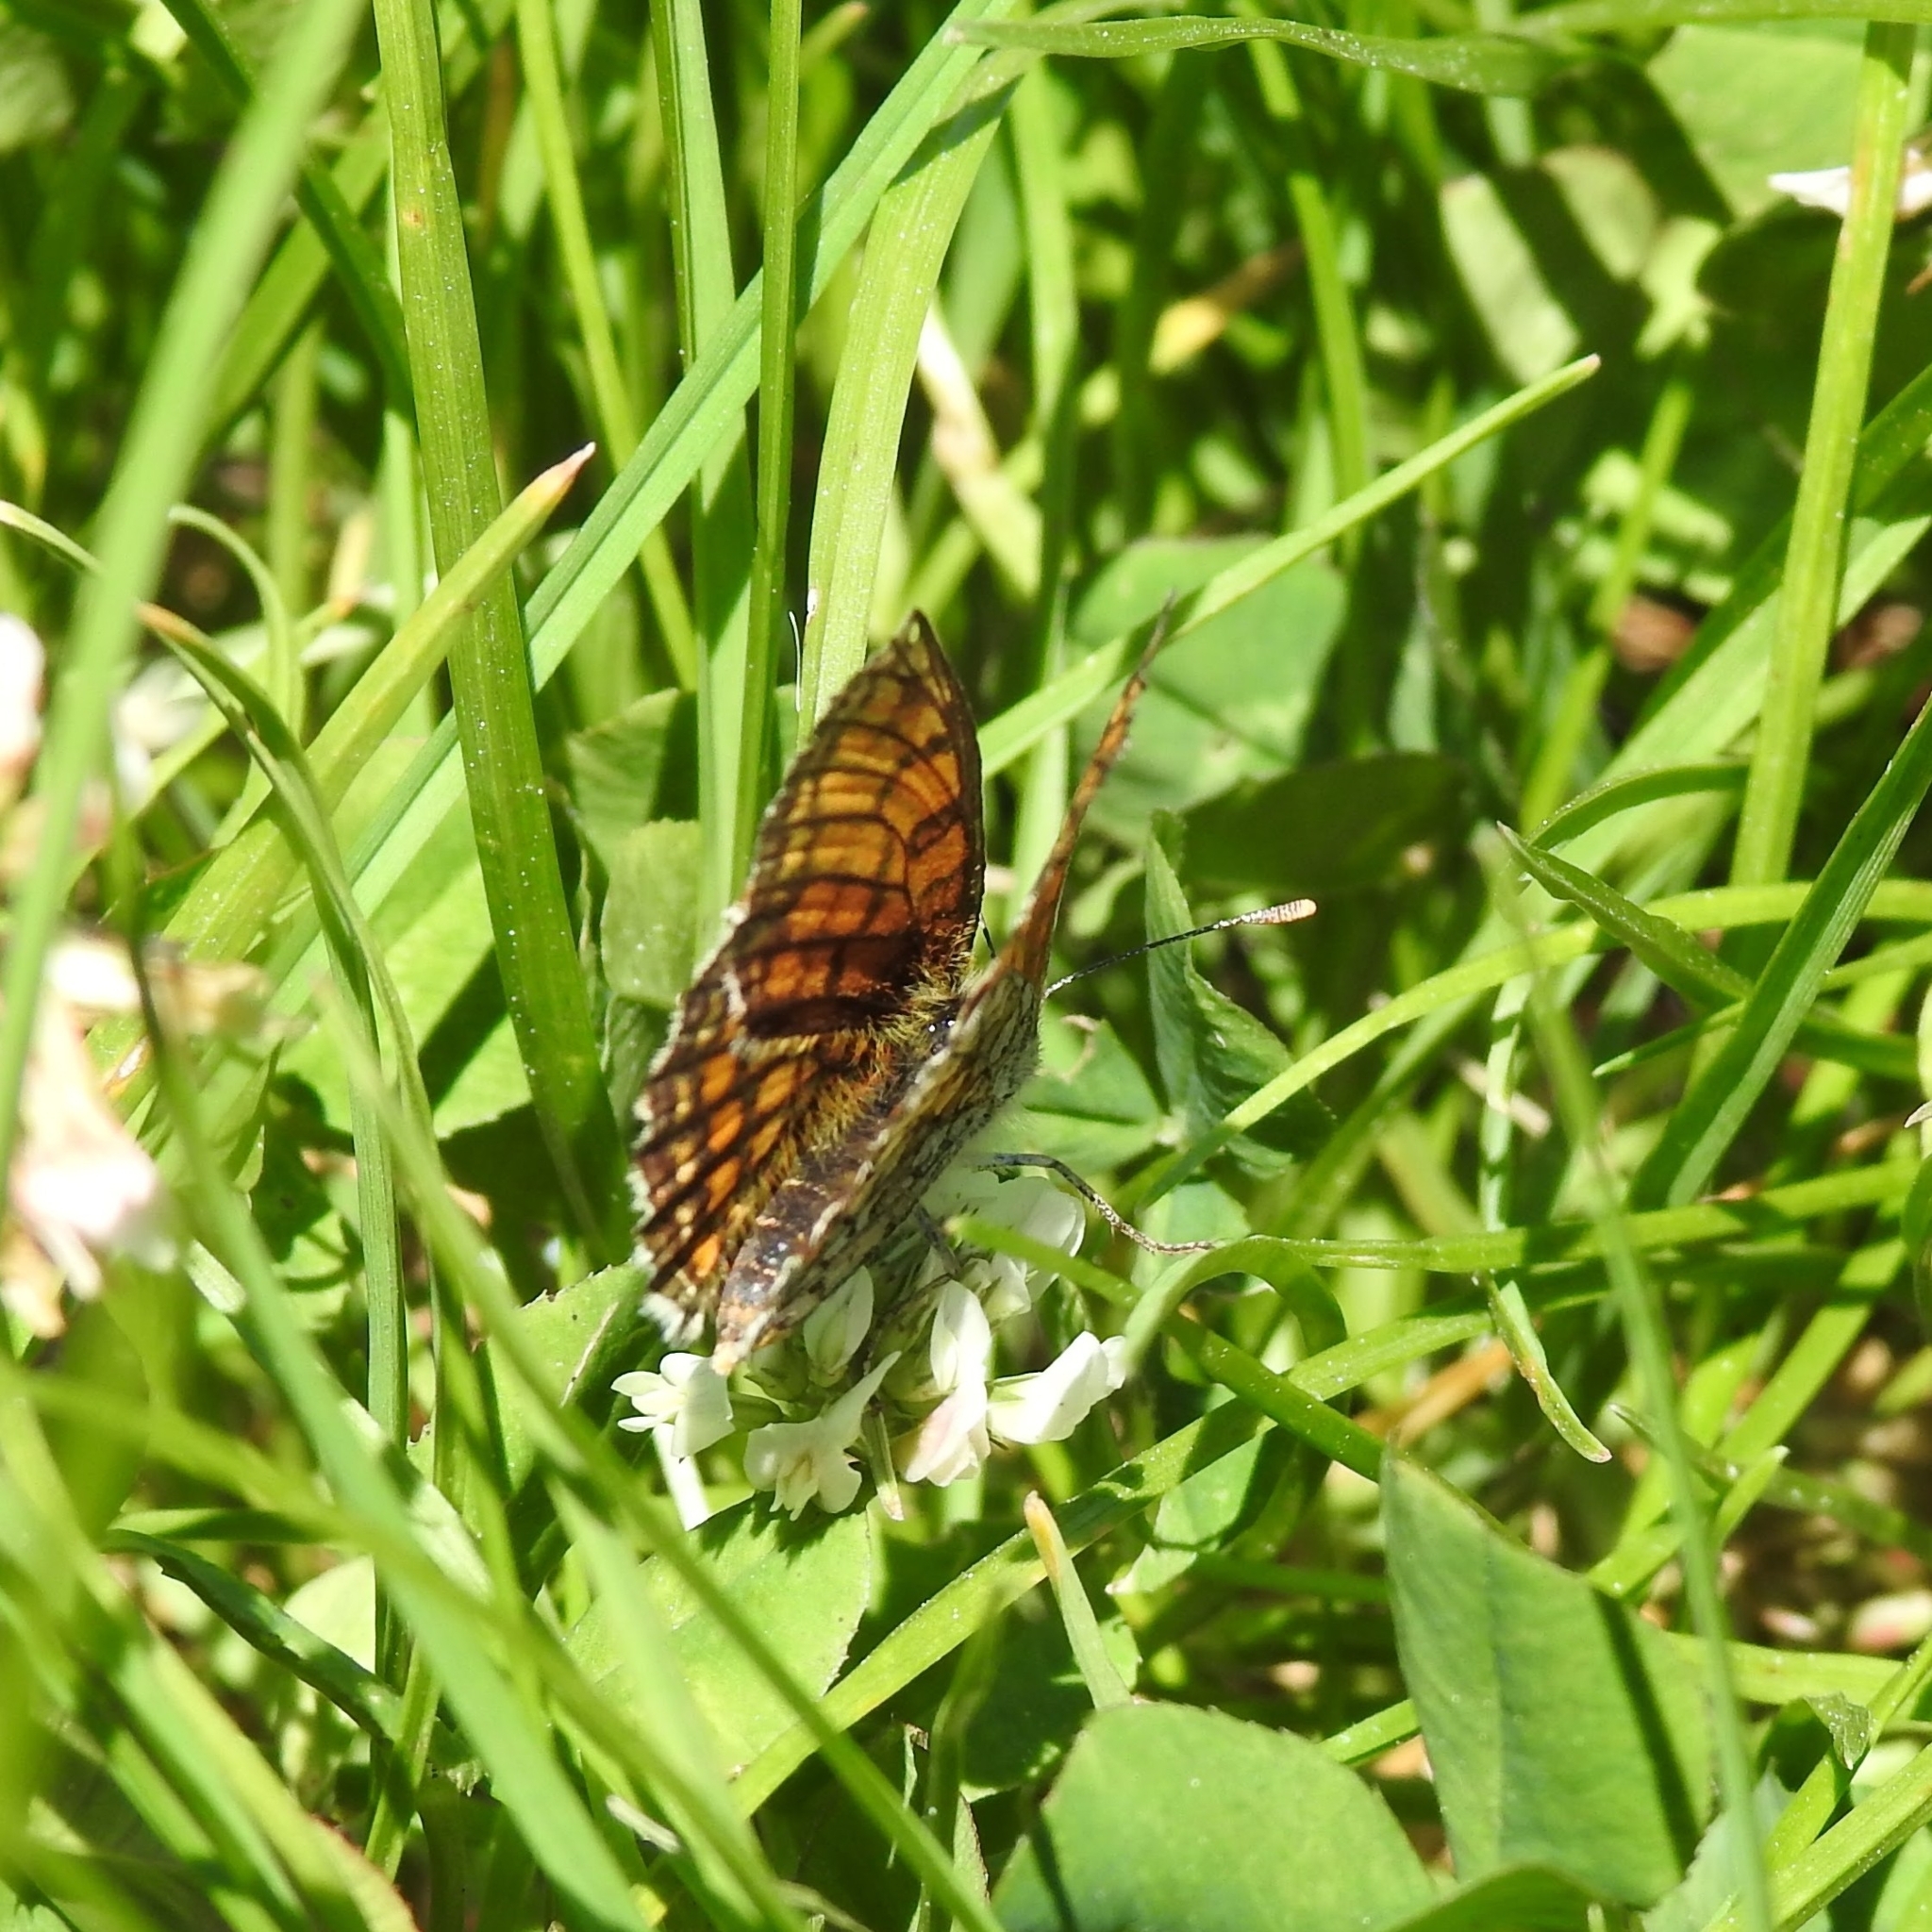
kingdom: Animalia
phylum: Arthropoda
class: Insecta
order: Lepidoptera
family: Nymphalidae
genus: Mellicta
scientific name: Mellicta parthenoides
